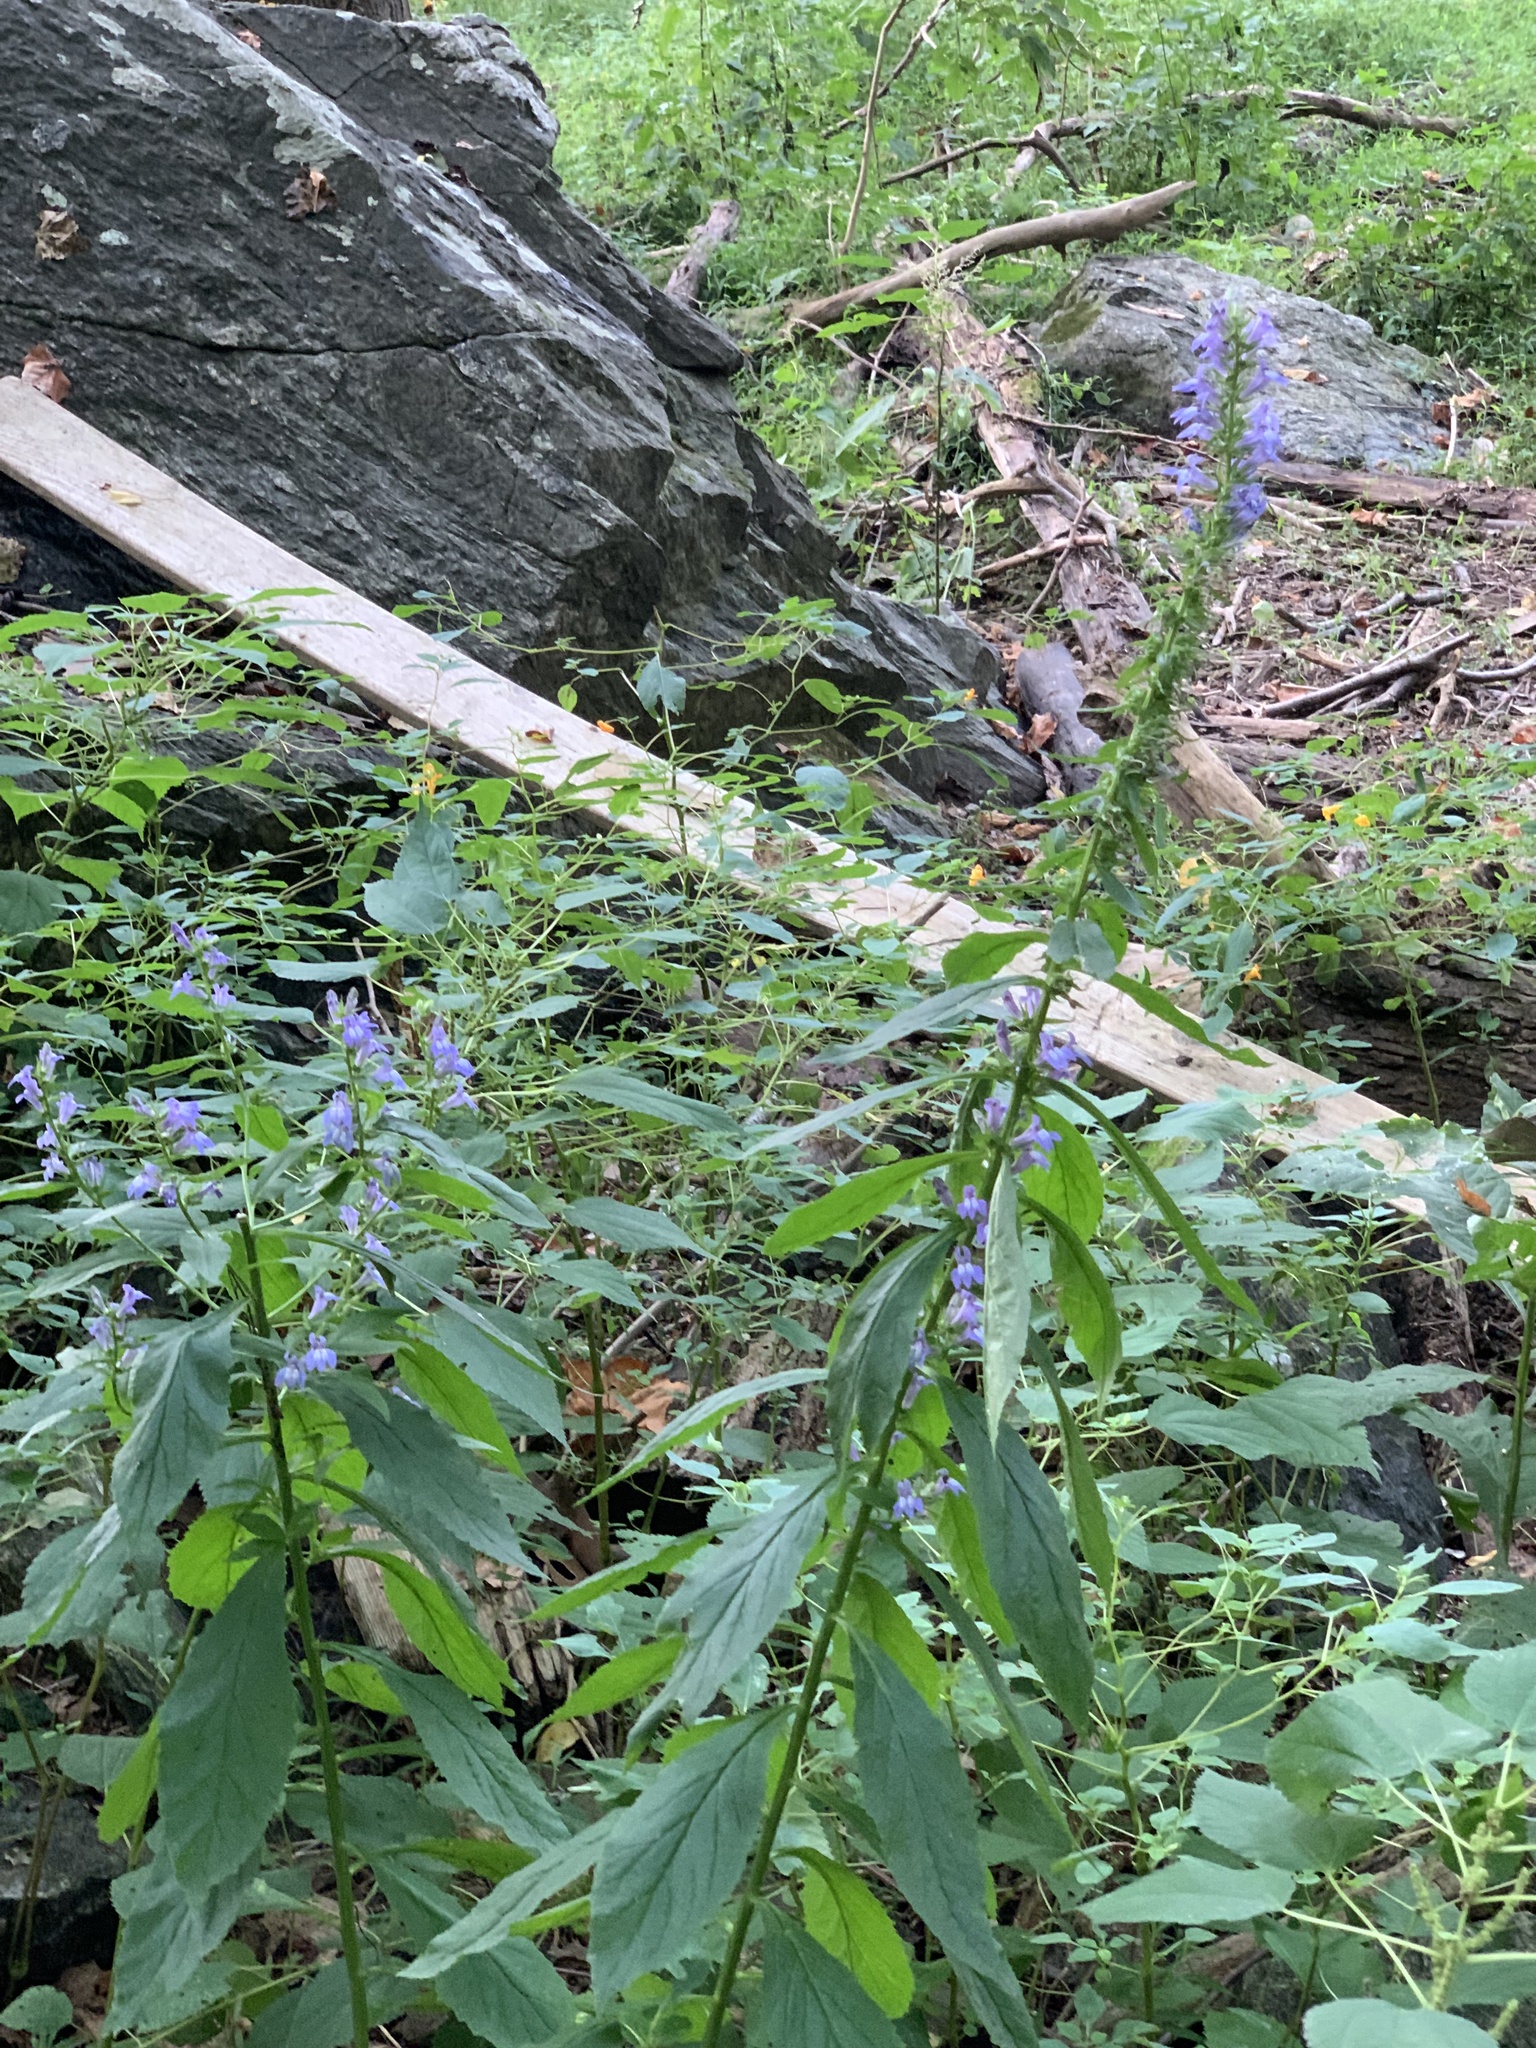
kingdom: Plantae
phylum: Tracheophyta
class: Magnoliopsida
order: Asterales
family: Campanulaceae
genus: Lobelia
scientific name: Lobelia siphilitica
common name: Great lobelia
